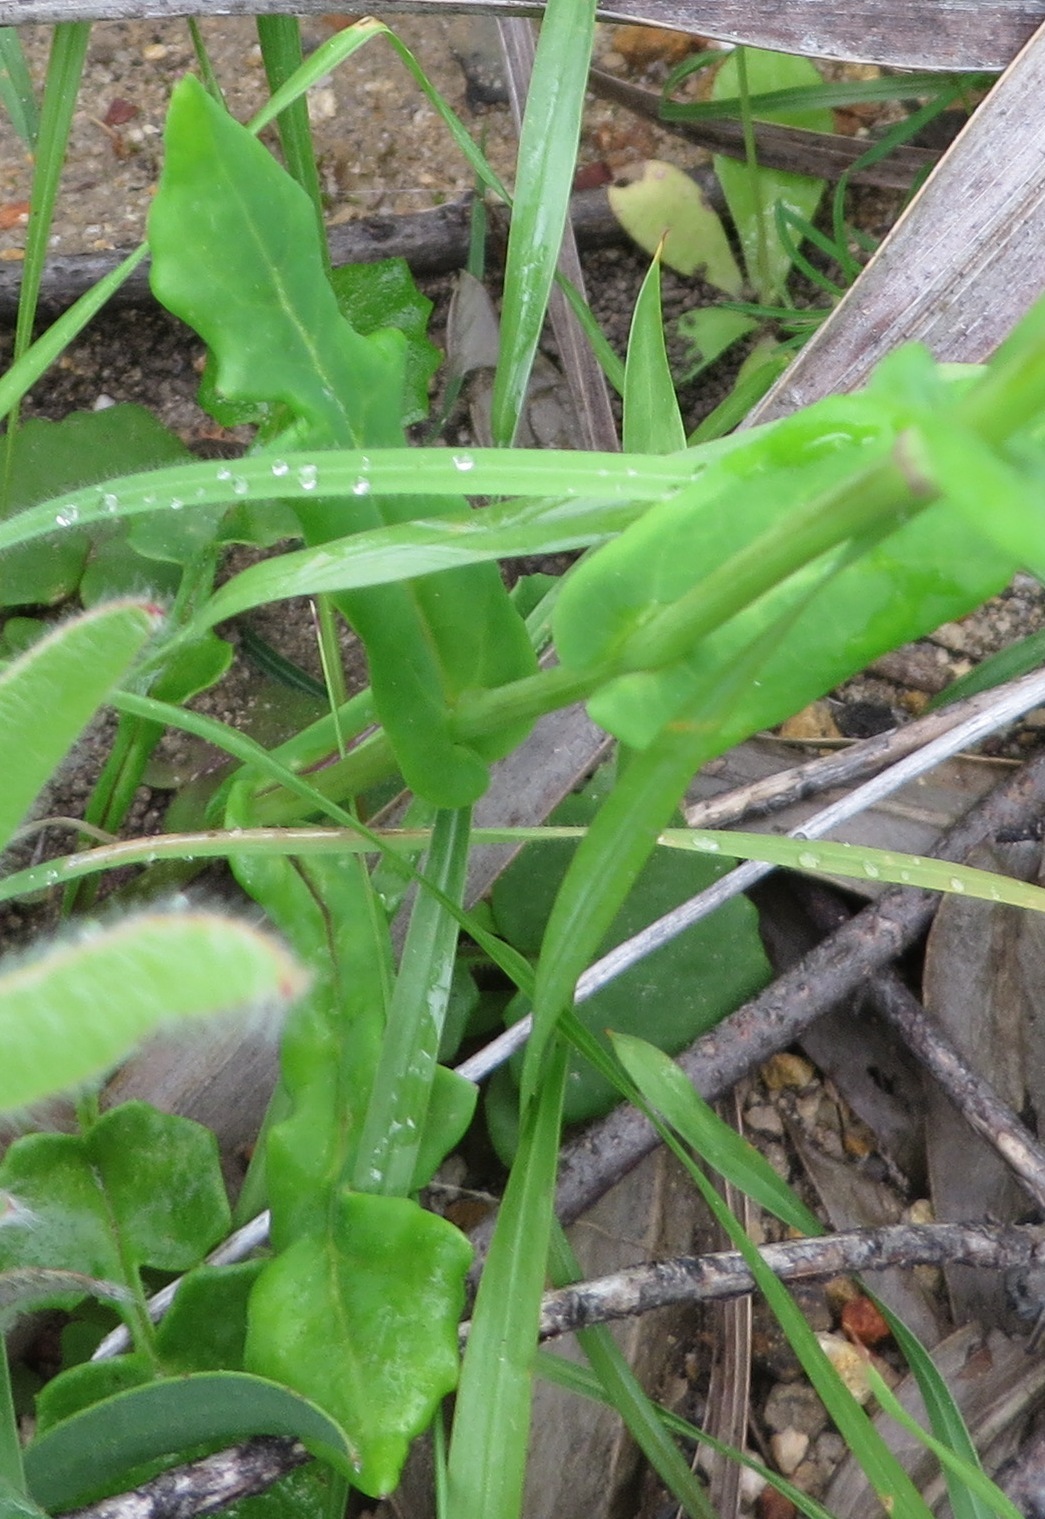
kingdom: Plantae
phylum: Tracheophyta
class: Magnoliopsida
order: Asterales
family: Asteraceae
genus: Senecio
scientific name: Senecio cymbalariifolius
